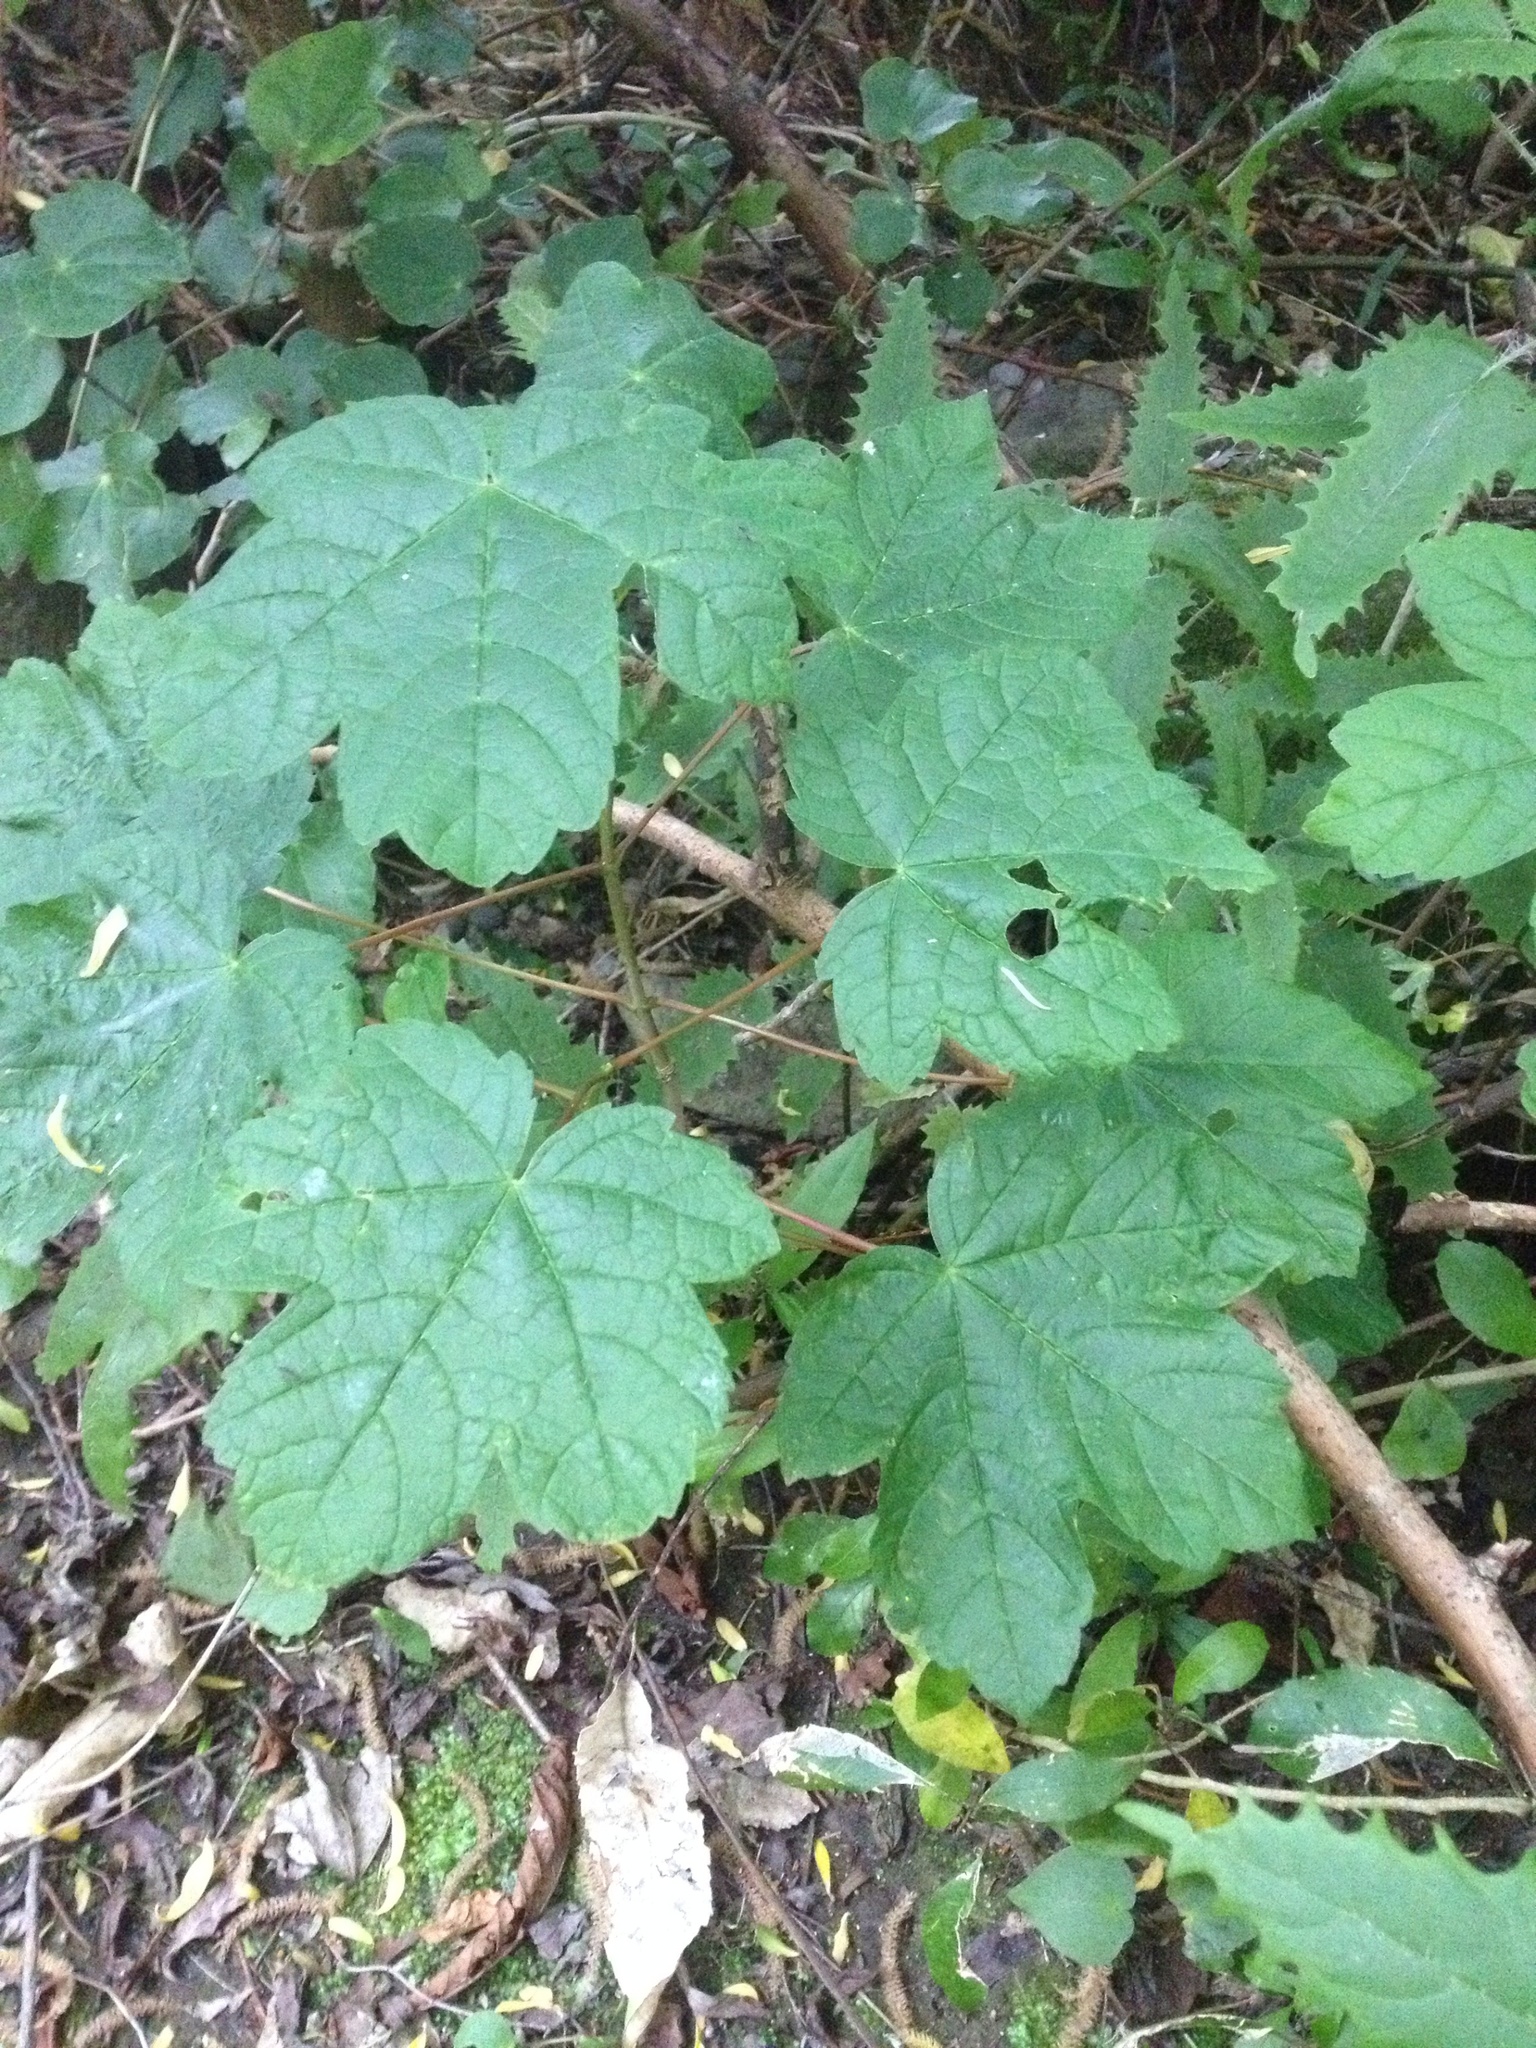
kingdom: Plantae
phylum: Tracheophyta
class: Magnoliopsida
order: Sapindales
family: Sapindaceae
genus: Acer
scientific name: Acer pseudoplatanus
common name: Sycamore
